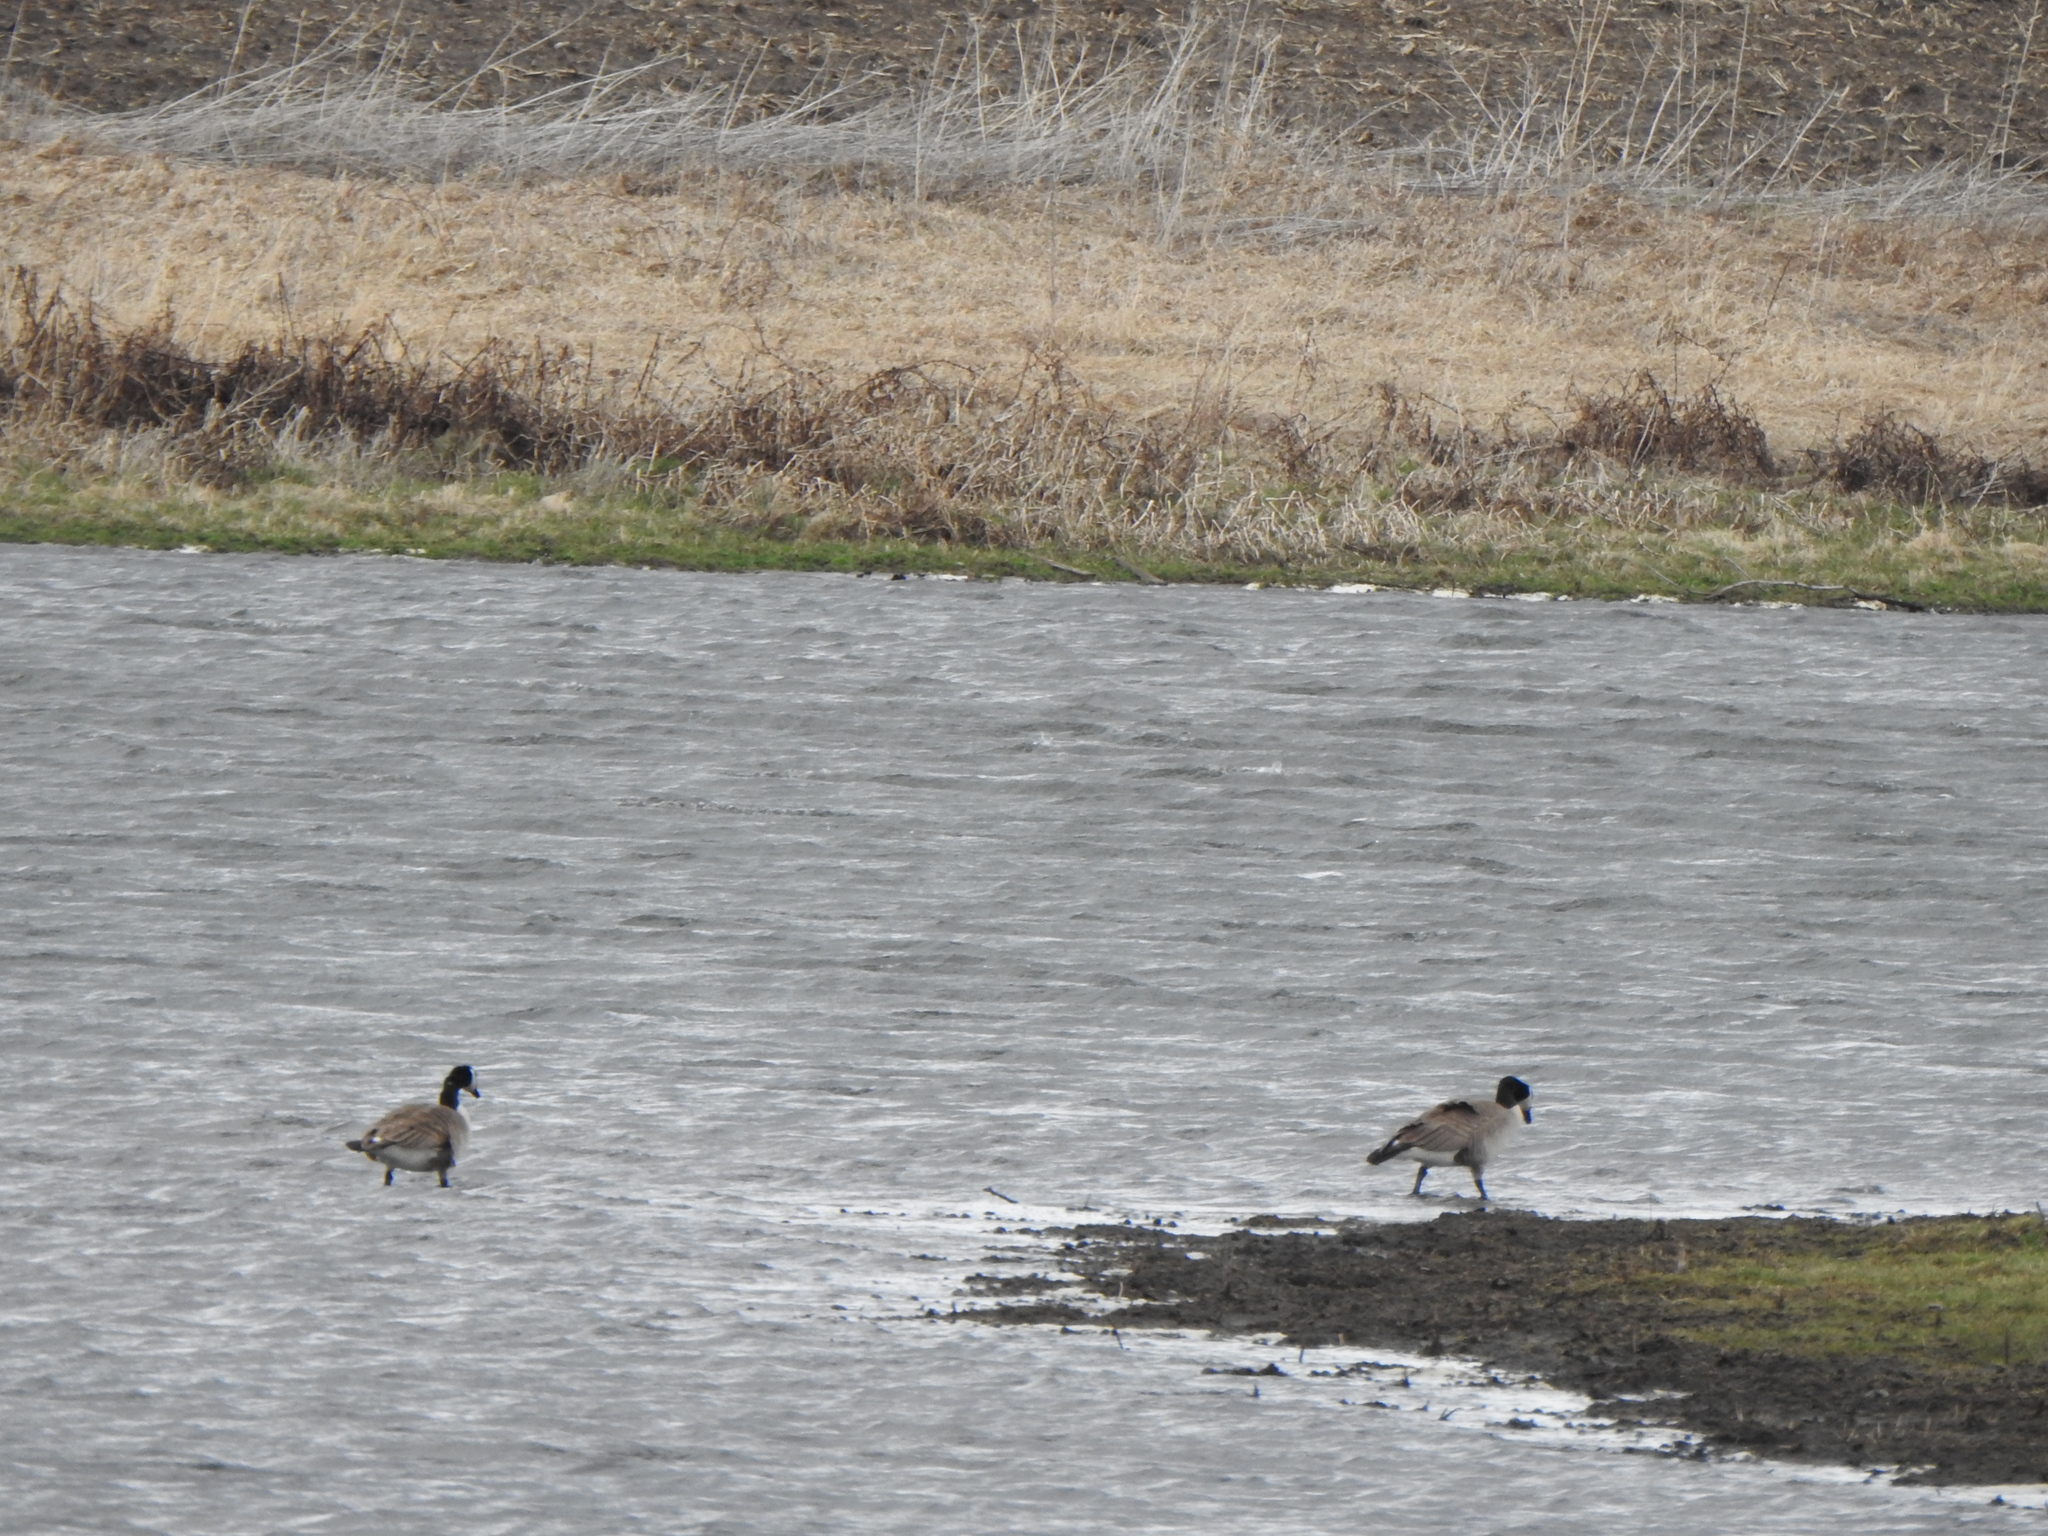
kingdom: Animalia
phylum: Chordata
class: Aves
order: Anseriformes
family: Anatidae
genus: Branta
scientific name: Branta canadensis
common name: Canada goose
